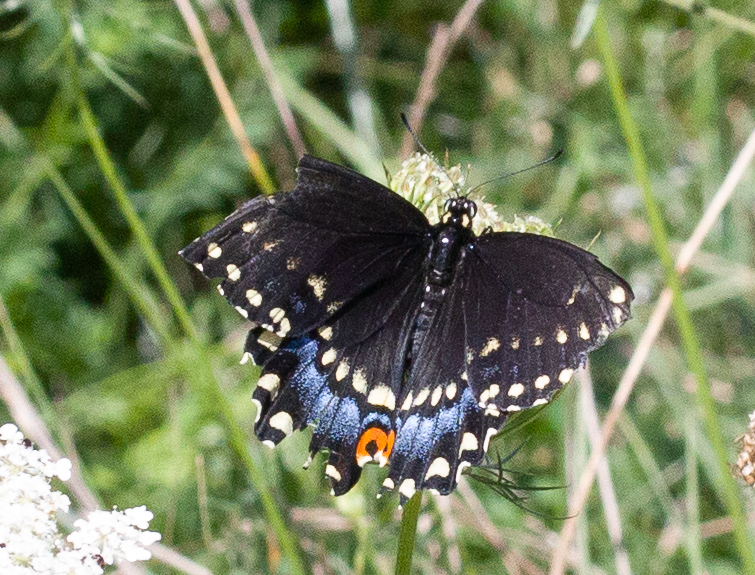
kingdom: Animalia
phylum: Arthropoda
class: Insecta
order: Lepidoptera
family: Papilionidae
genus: Papilio
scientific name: Papilio polyxenes
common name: Black swallowtail
